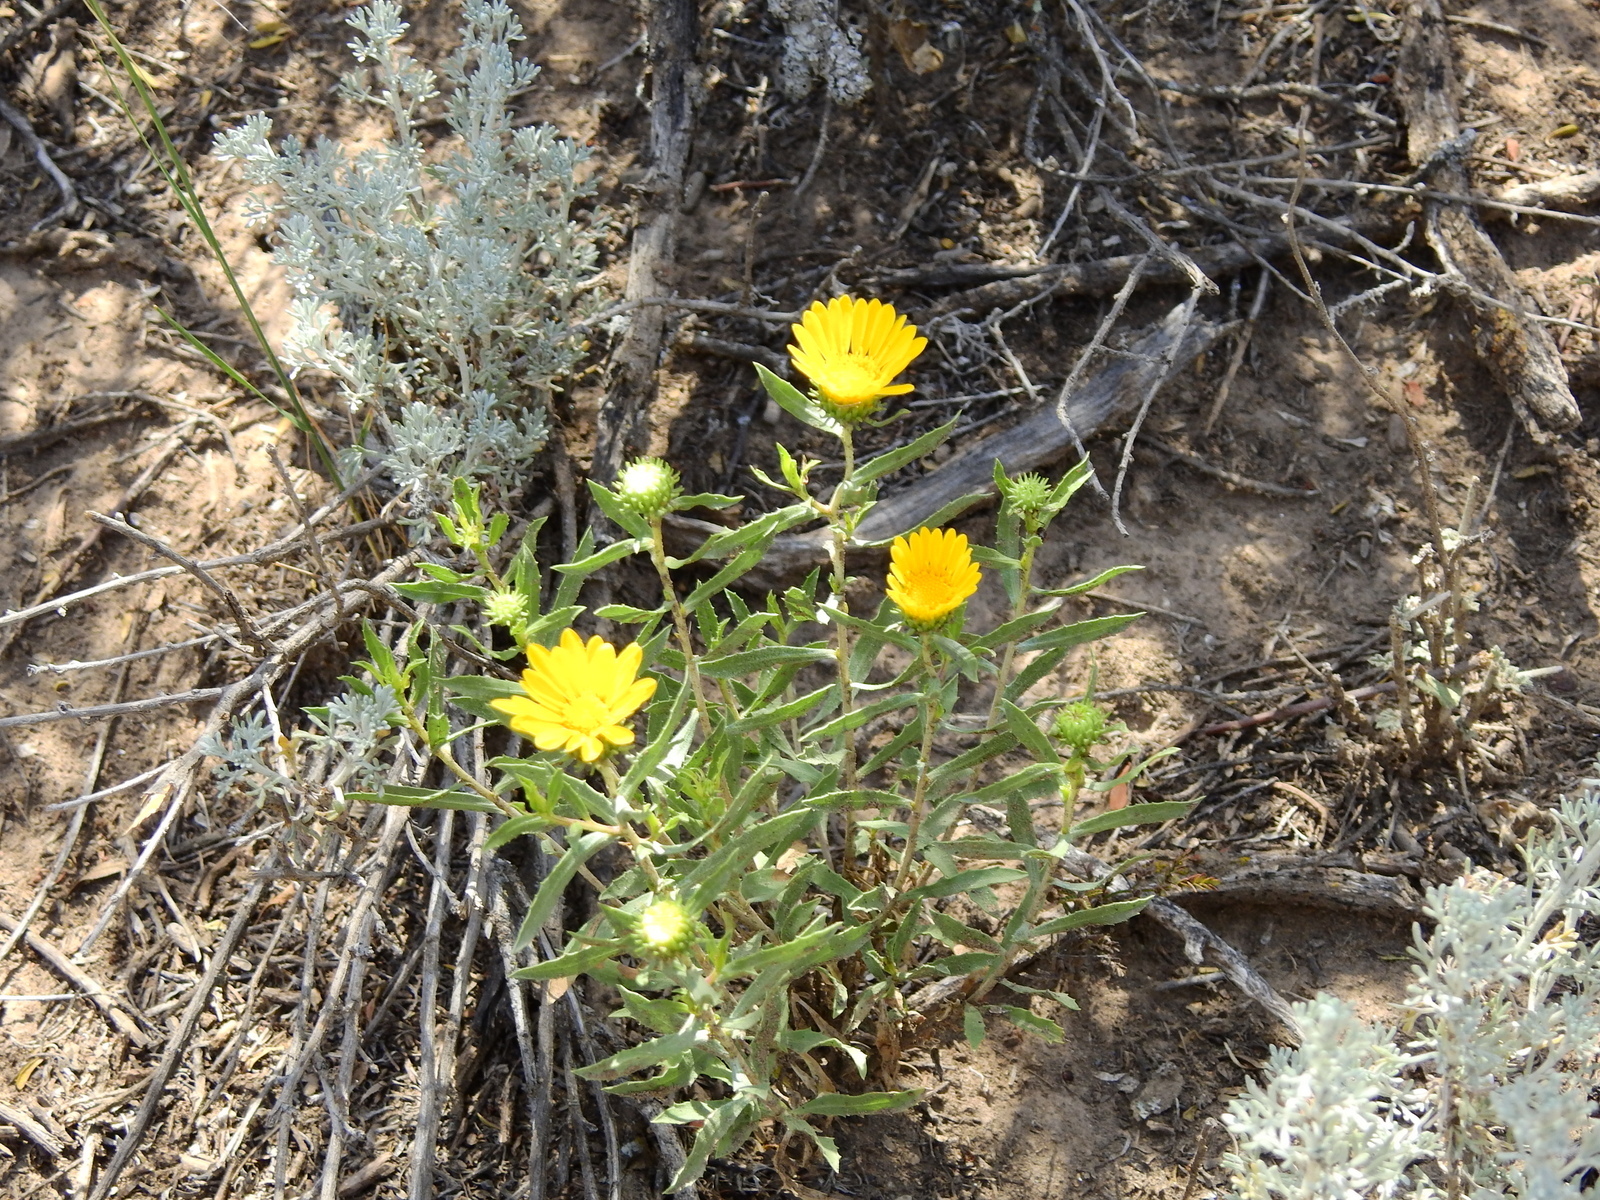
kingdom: Plantae
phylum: Tracheophyta
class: Magnoliopsida
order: Asterales
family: Asteraceae
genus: Grindelia
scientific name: Grindelia pulchella
